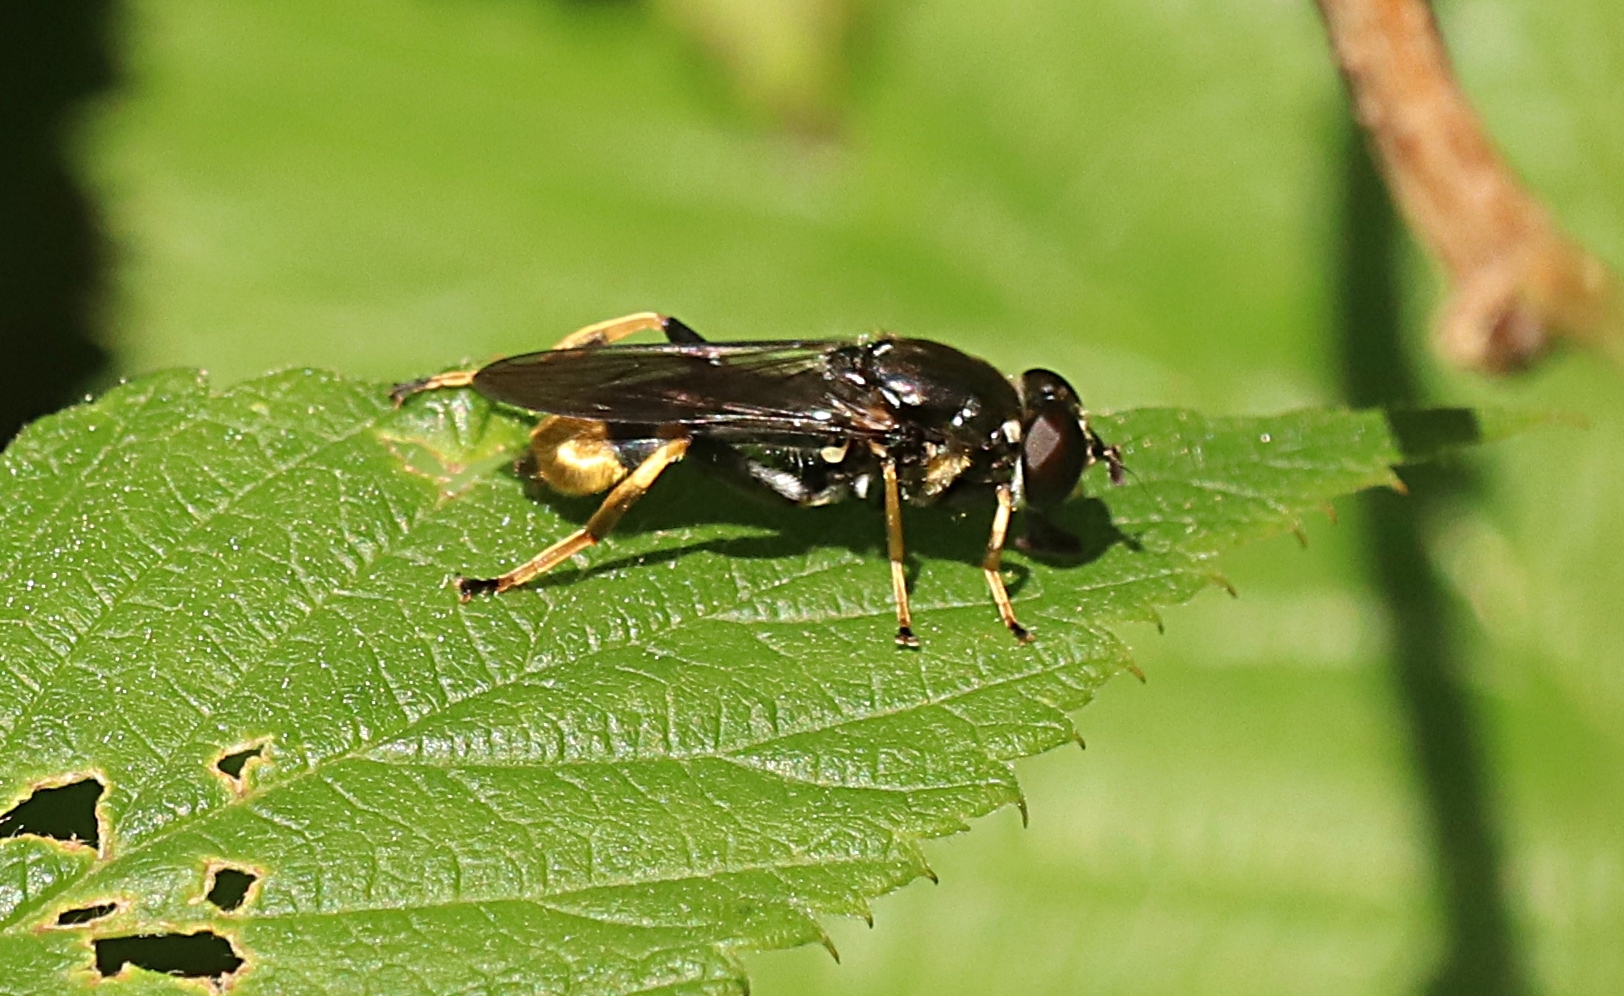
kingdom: Animalia
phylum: Arthropoda
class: Insecta
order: Diptera
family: Syrphidae
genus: Xylota
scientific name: Xylota sylvarum
